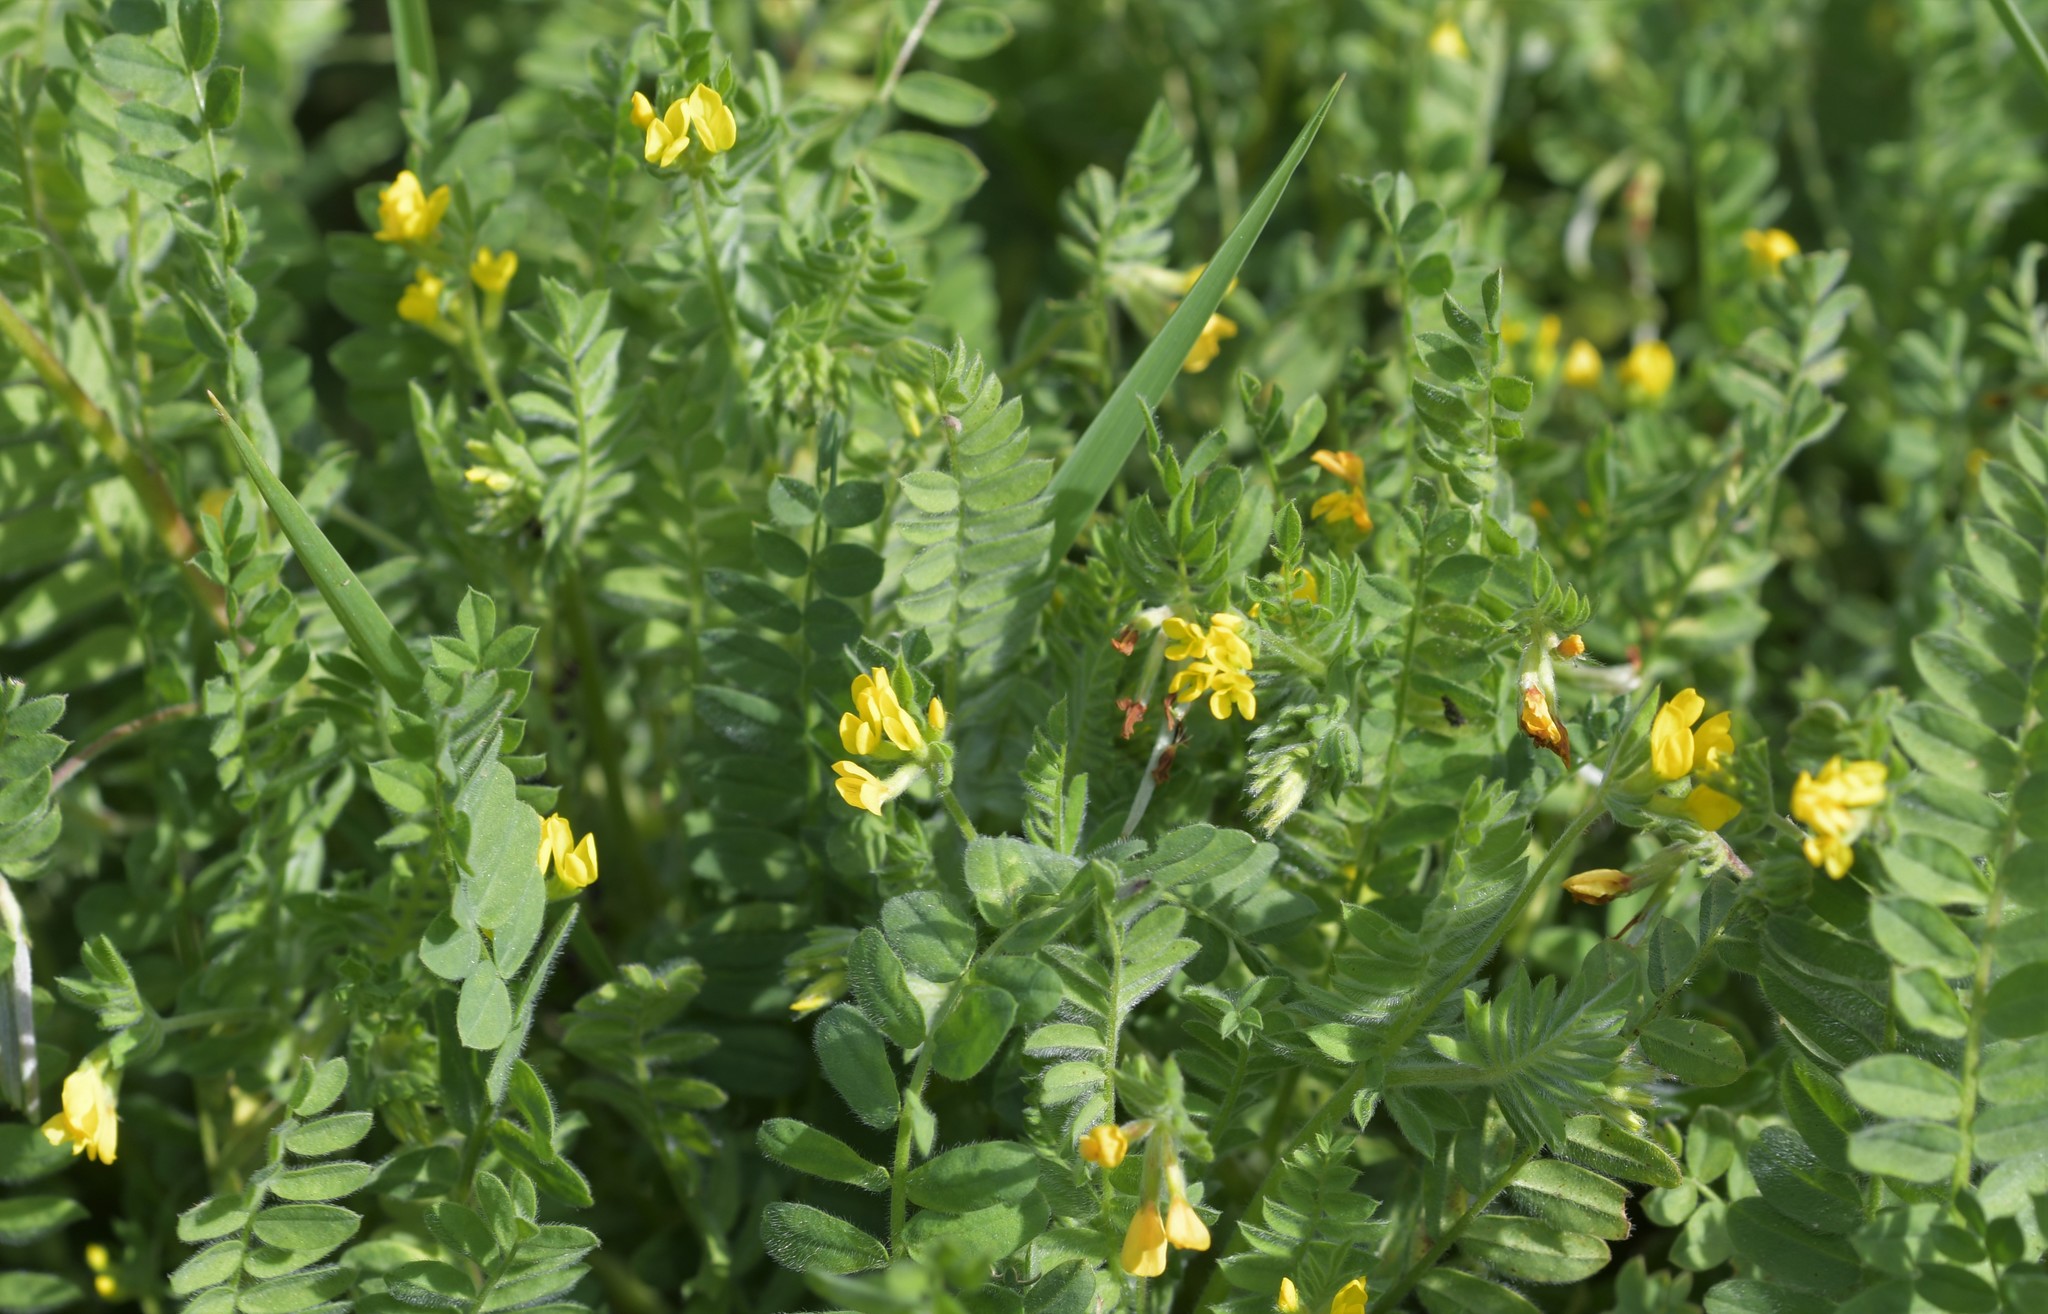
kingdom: Plantae
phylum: Tracheophyta
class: Magnoliopsida
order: Fabales
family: Fabaceae
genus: Ornithopus
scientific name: Ornithopus compressus
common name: Yellow serradella
